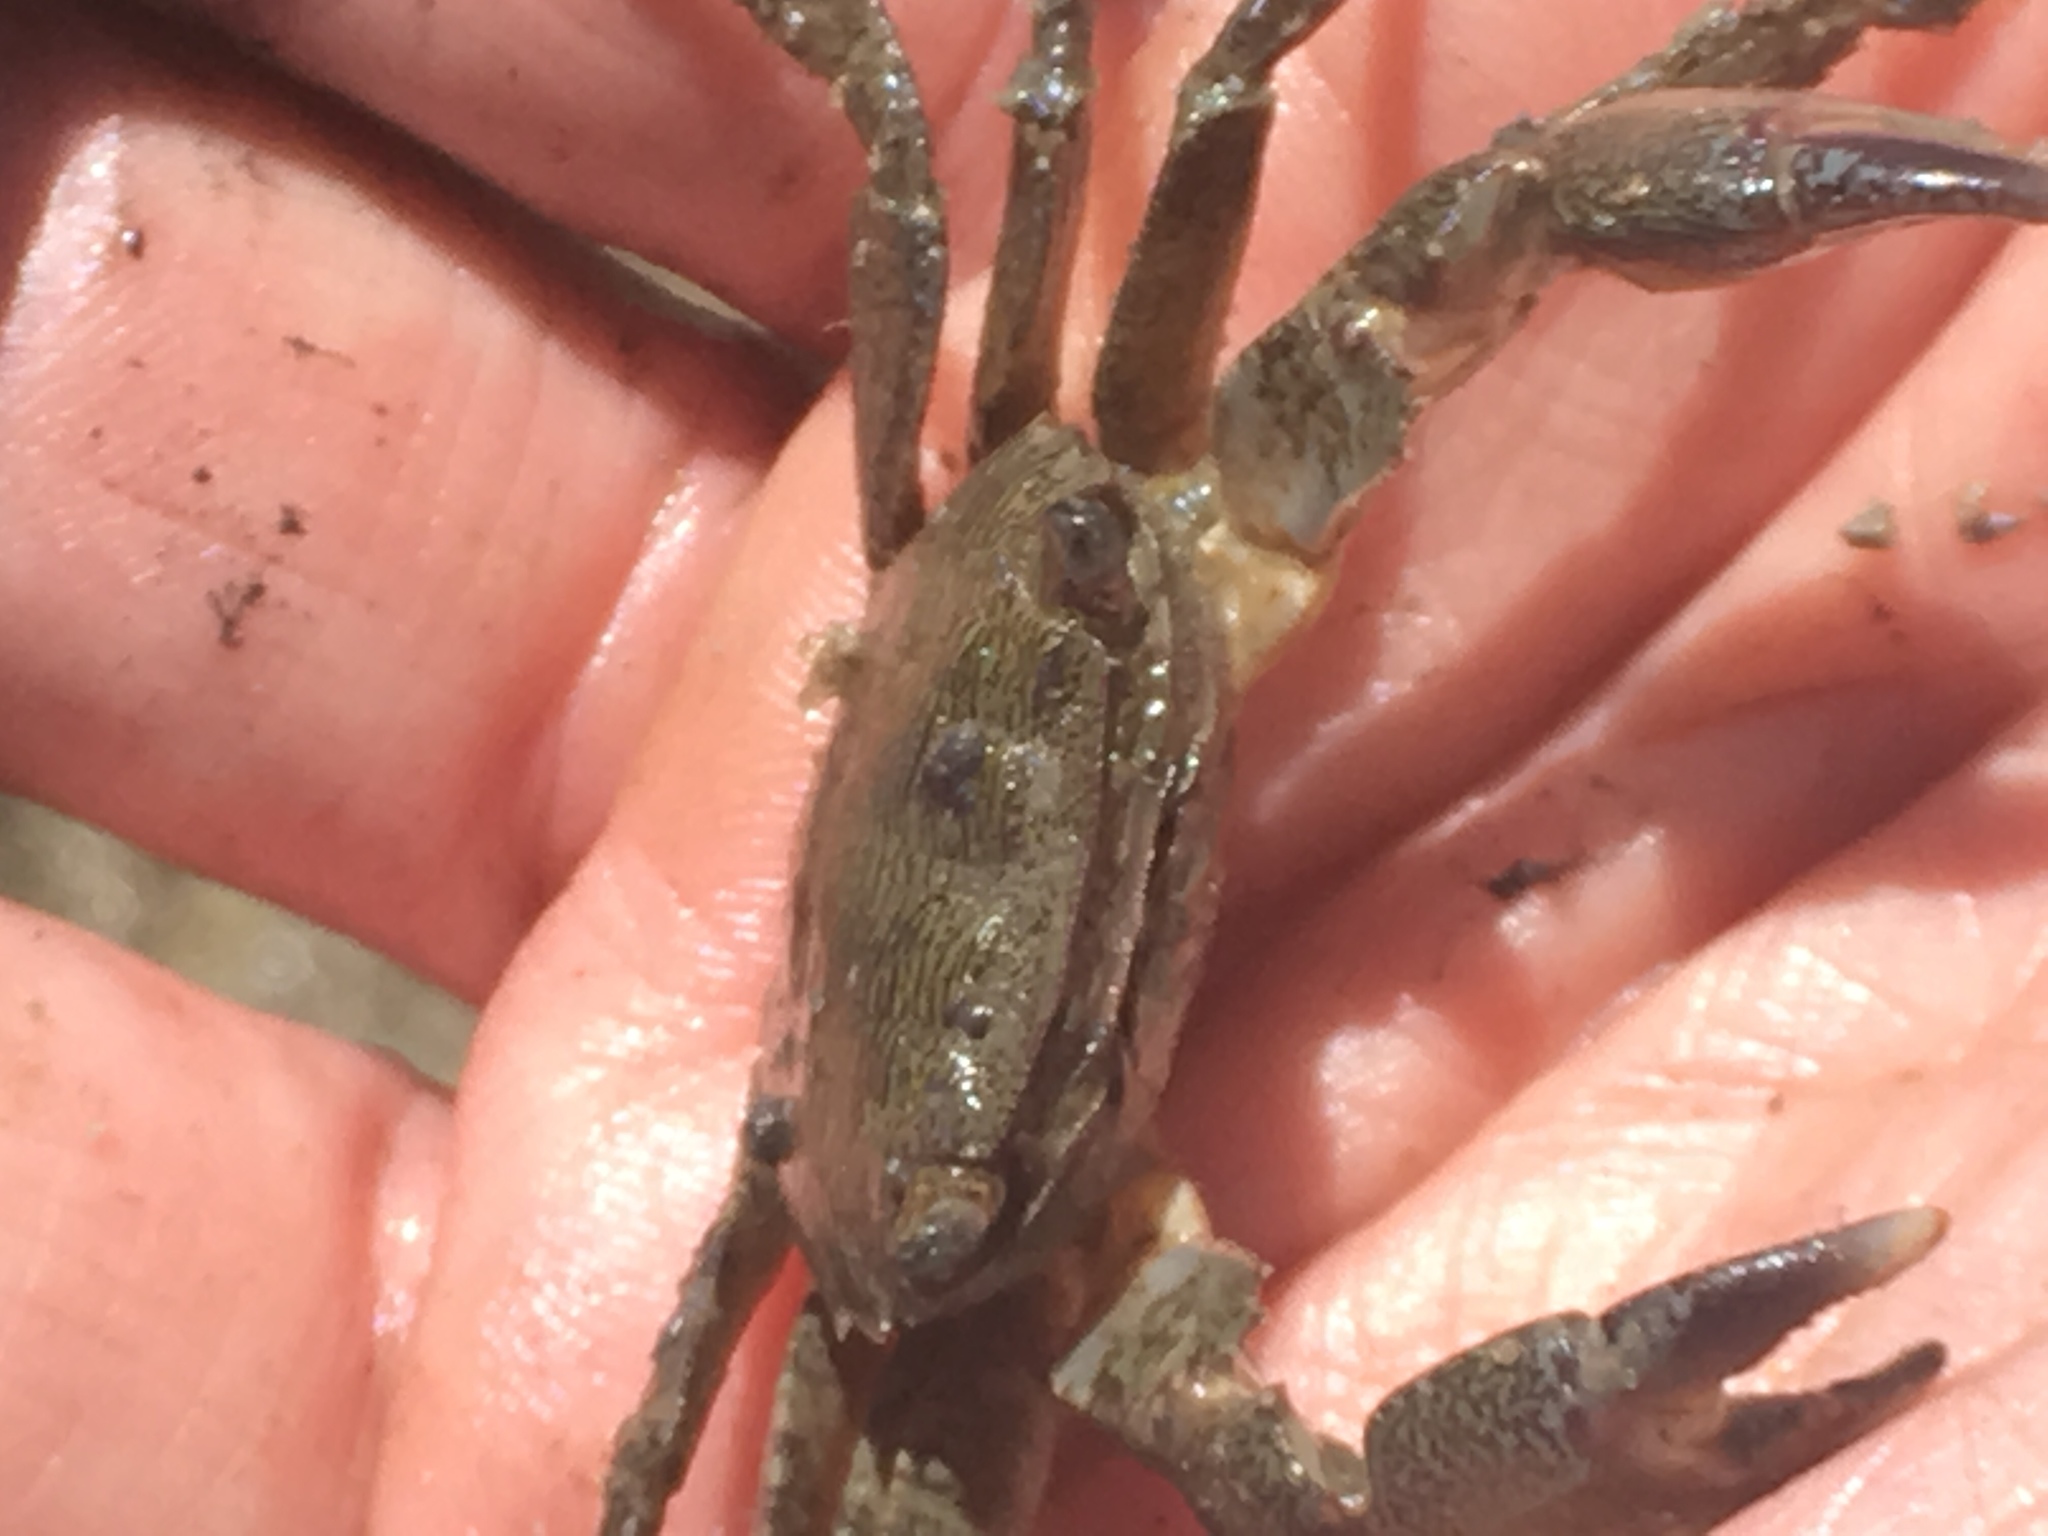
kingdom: Animalia
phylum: Arthropoda
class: Malacostraca
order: Decapoda
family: Grapsidae
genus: Pachygrapsus
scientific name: Pachygrapsus marmoratus
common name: Marbled rock crab
